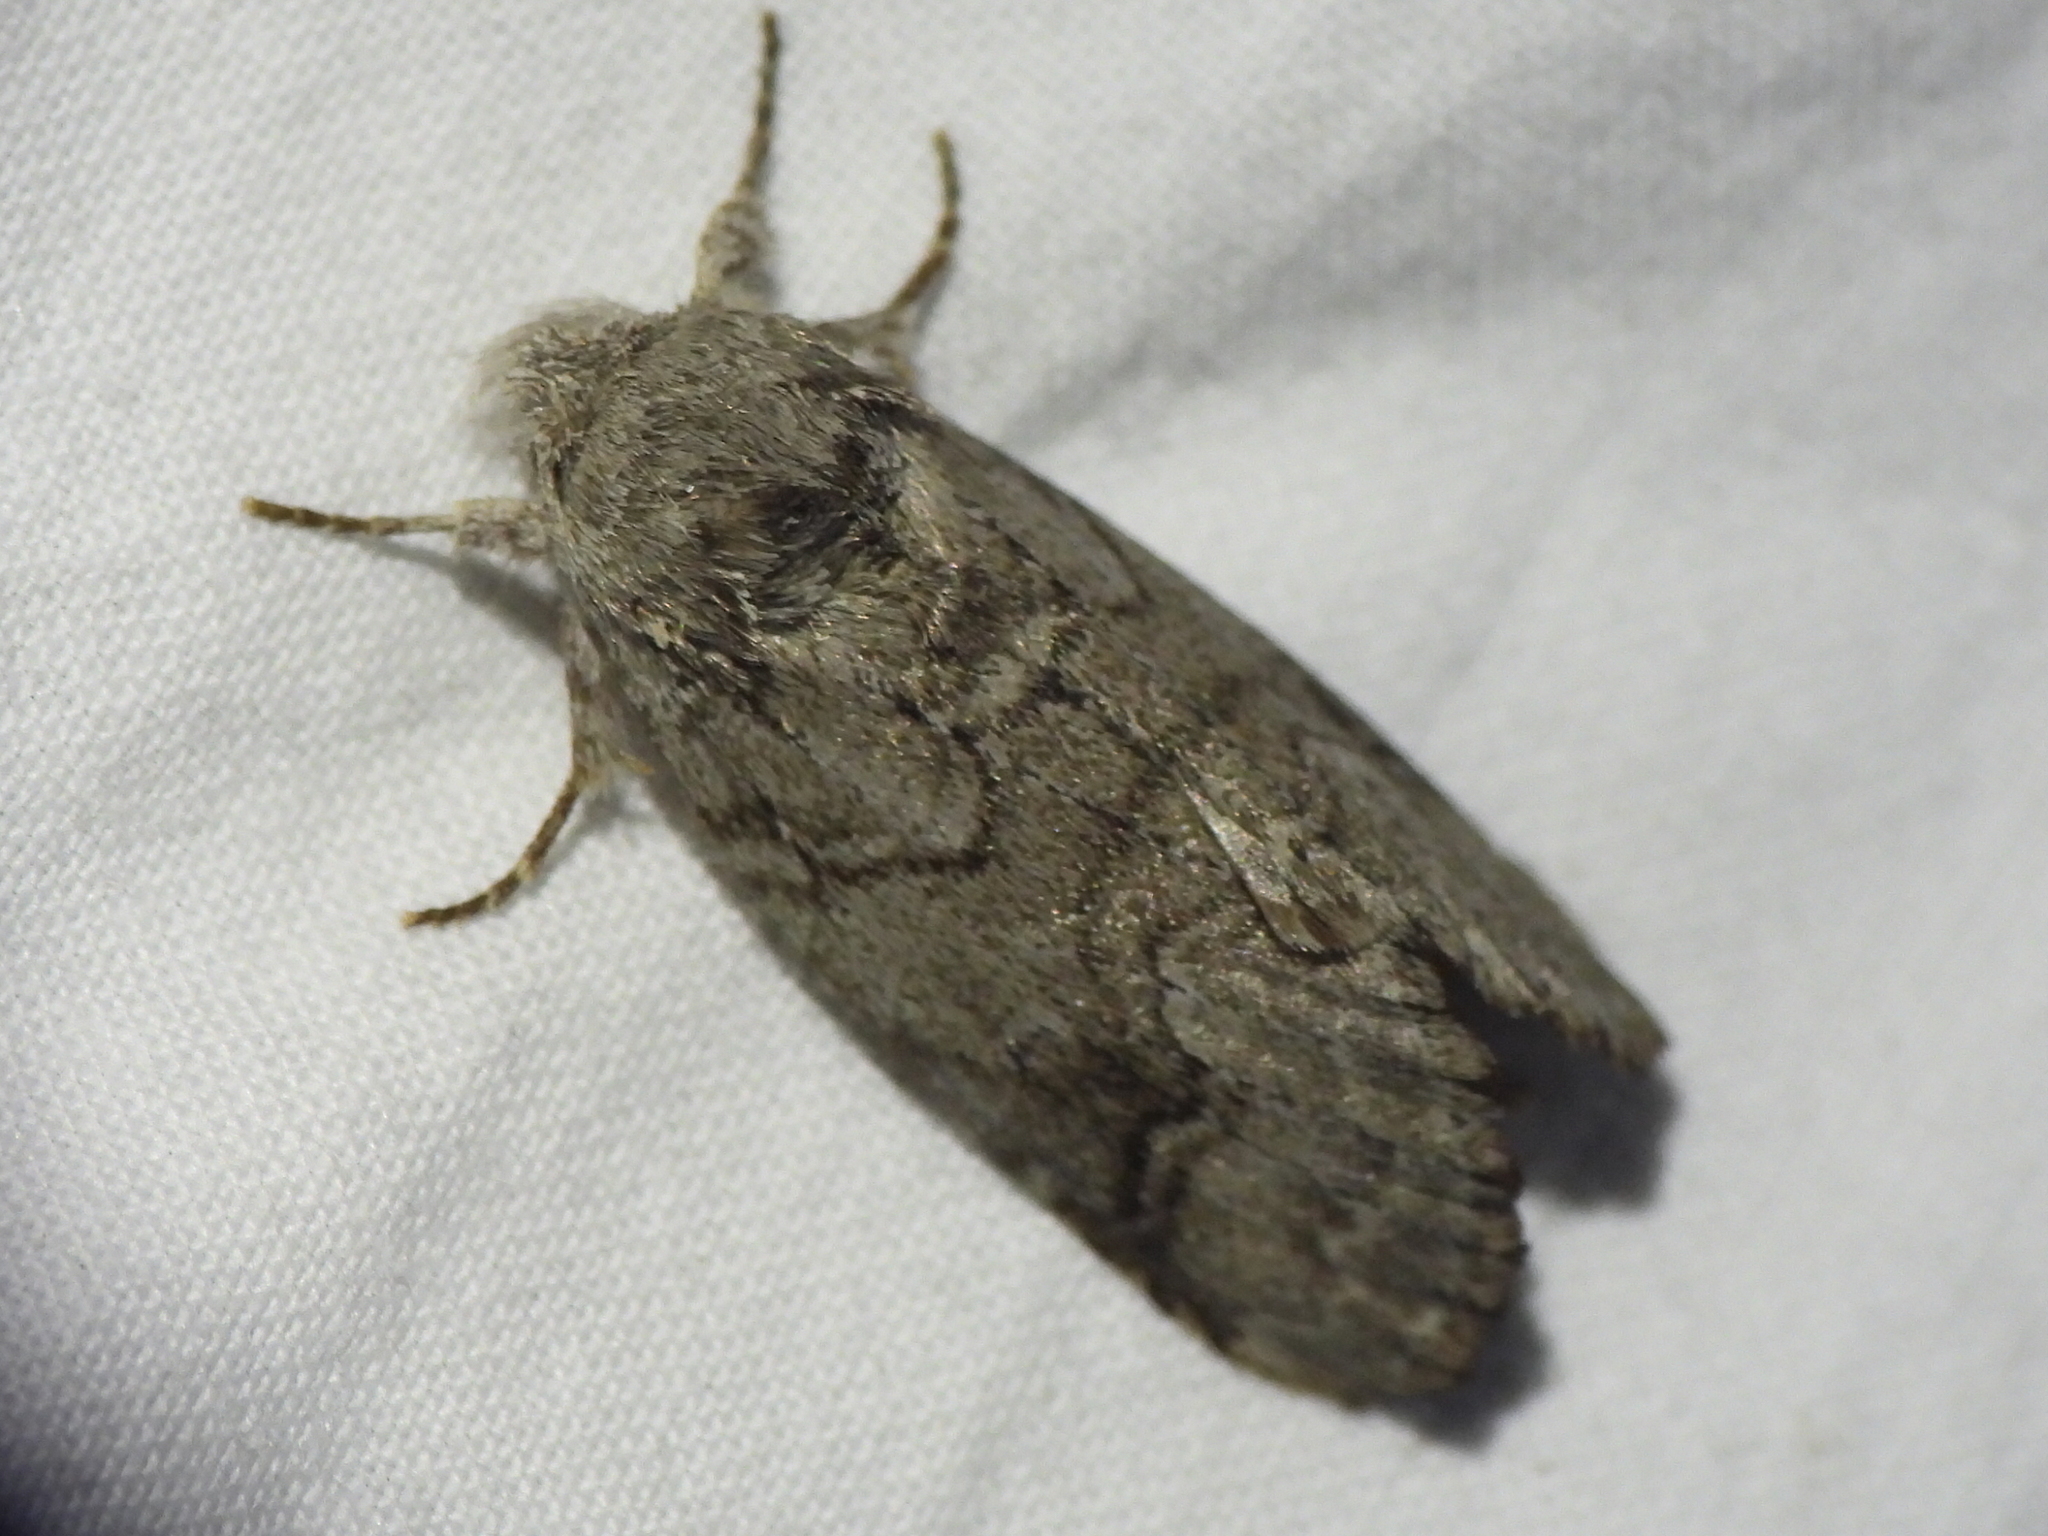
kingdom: Animalia
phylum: Arthropoda
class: Insecta
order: Lepidoptera
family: Notodontidae
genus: Lochmaeus
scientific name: Lochmaeus bilineata
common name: Double-lined prominent
